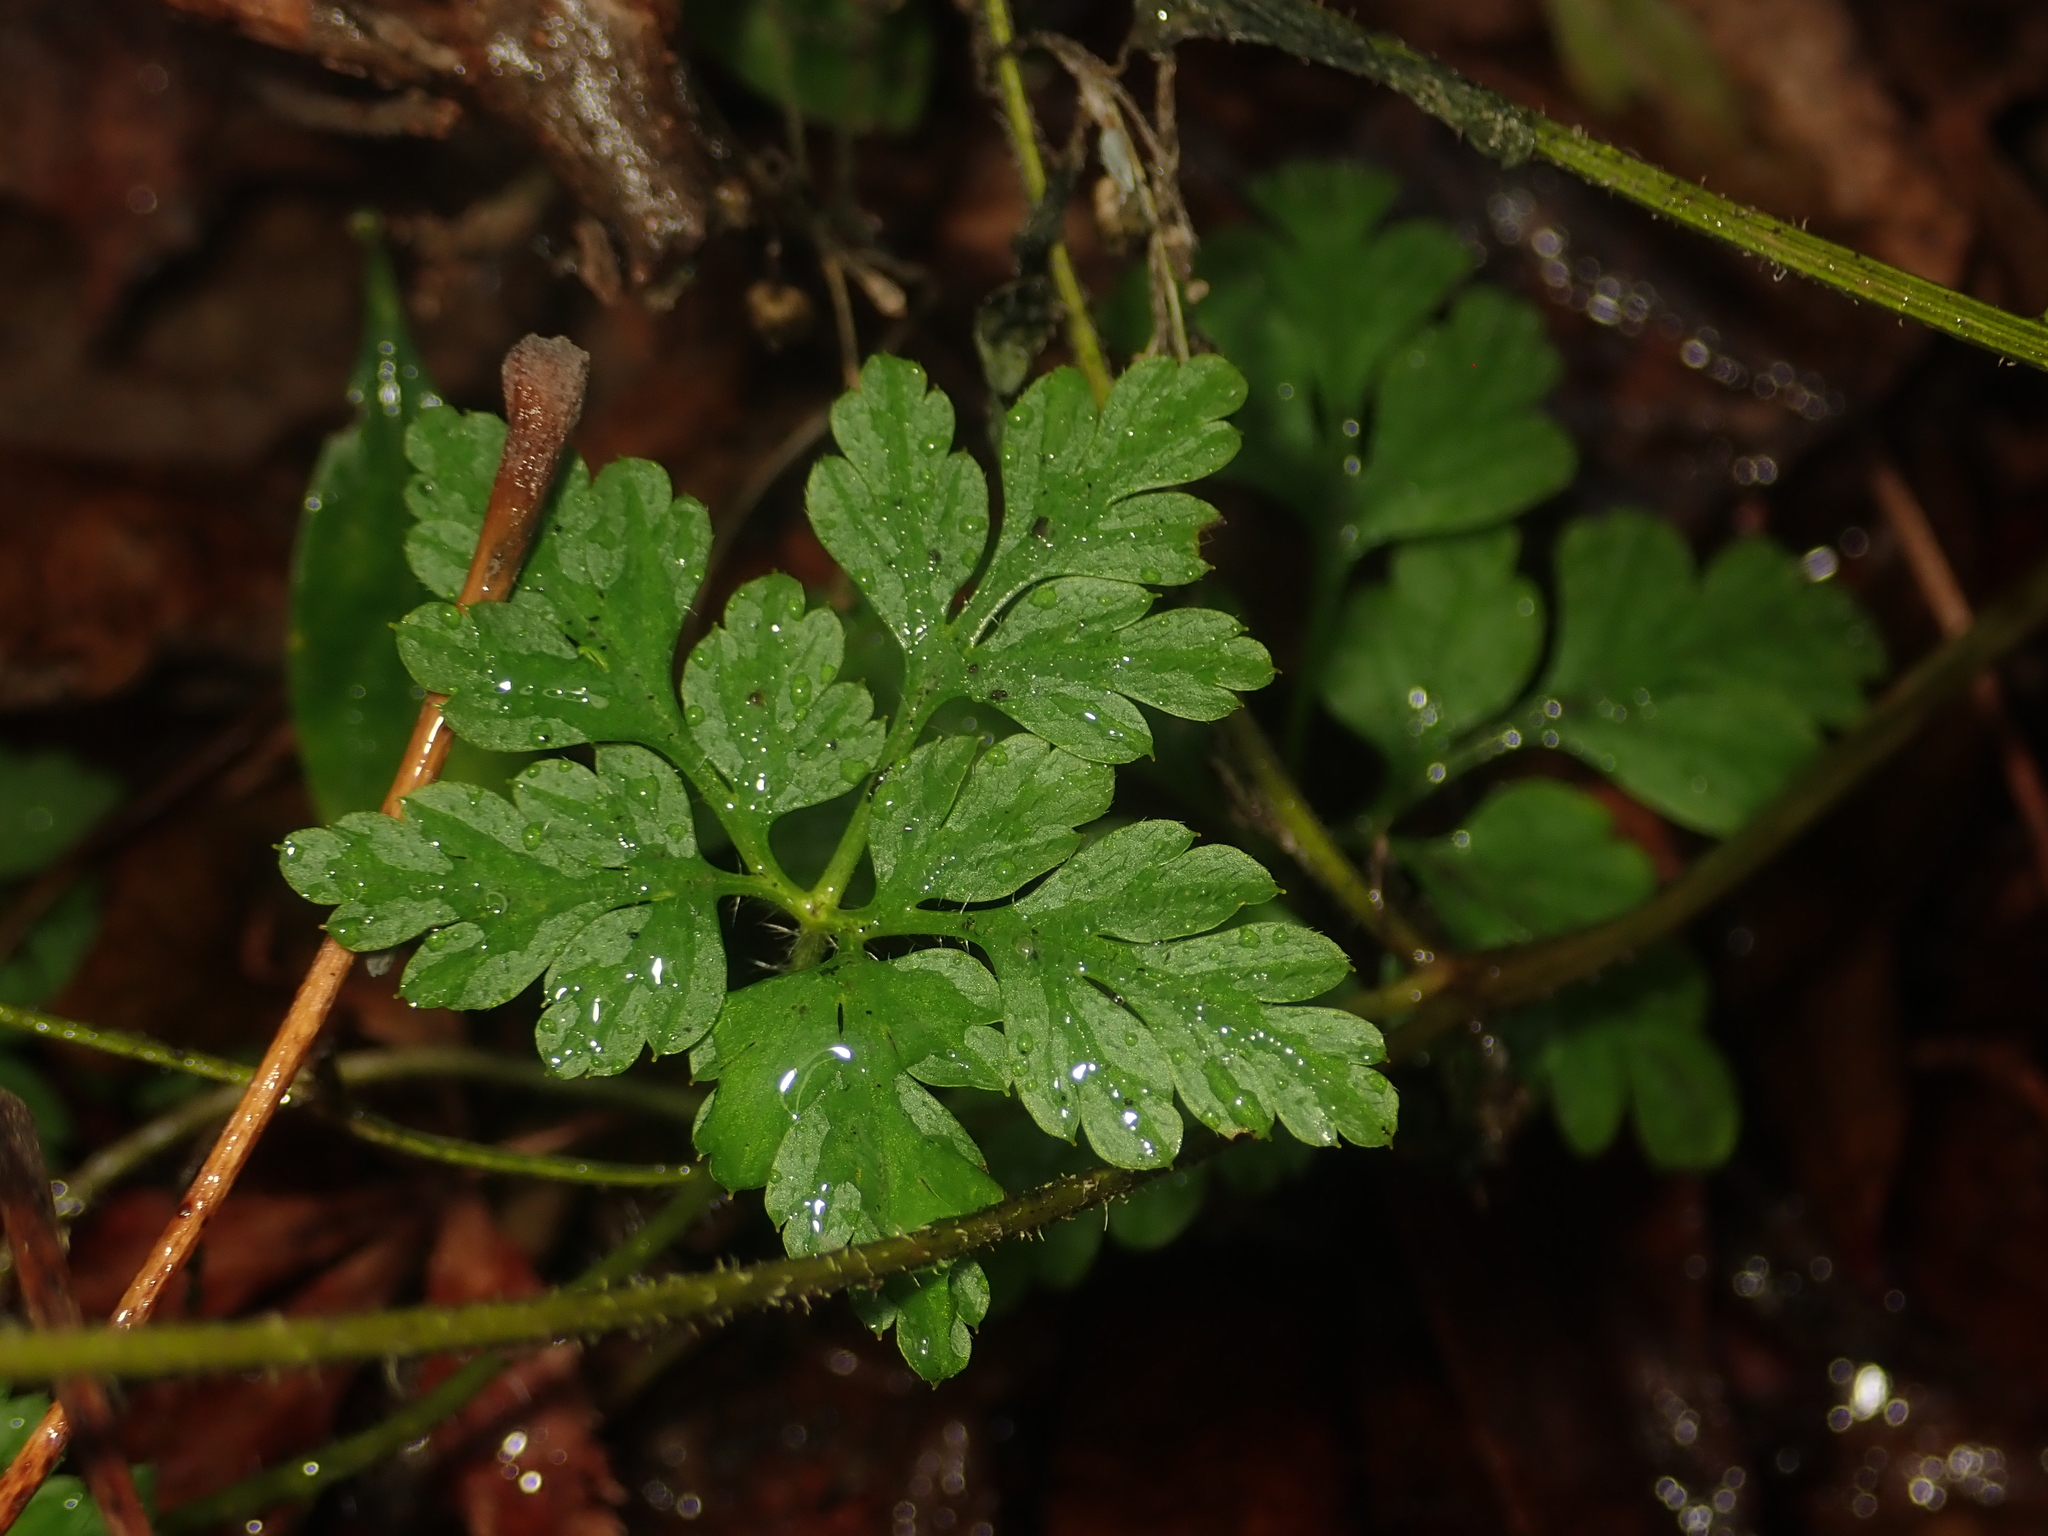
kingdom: Plantae
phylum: Tracheophyta
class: Magnoliopsida
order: Geraniales
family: Geraniaceae
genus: Geranium
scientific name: Geranium robertianum
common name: Herb-robert
